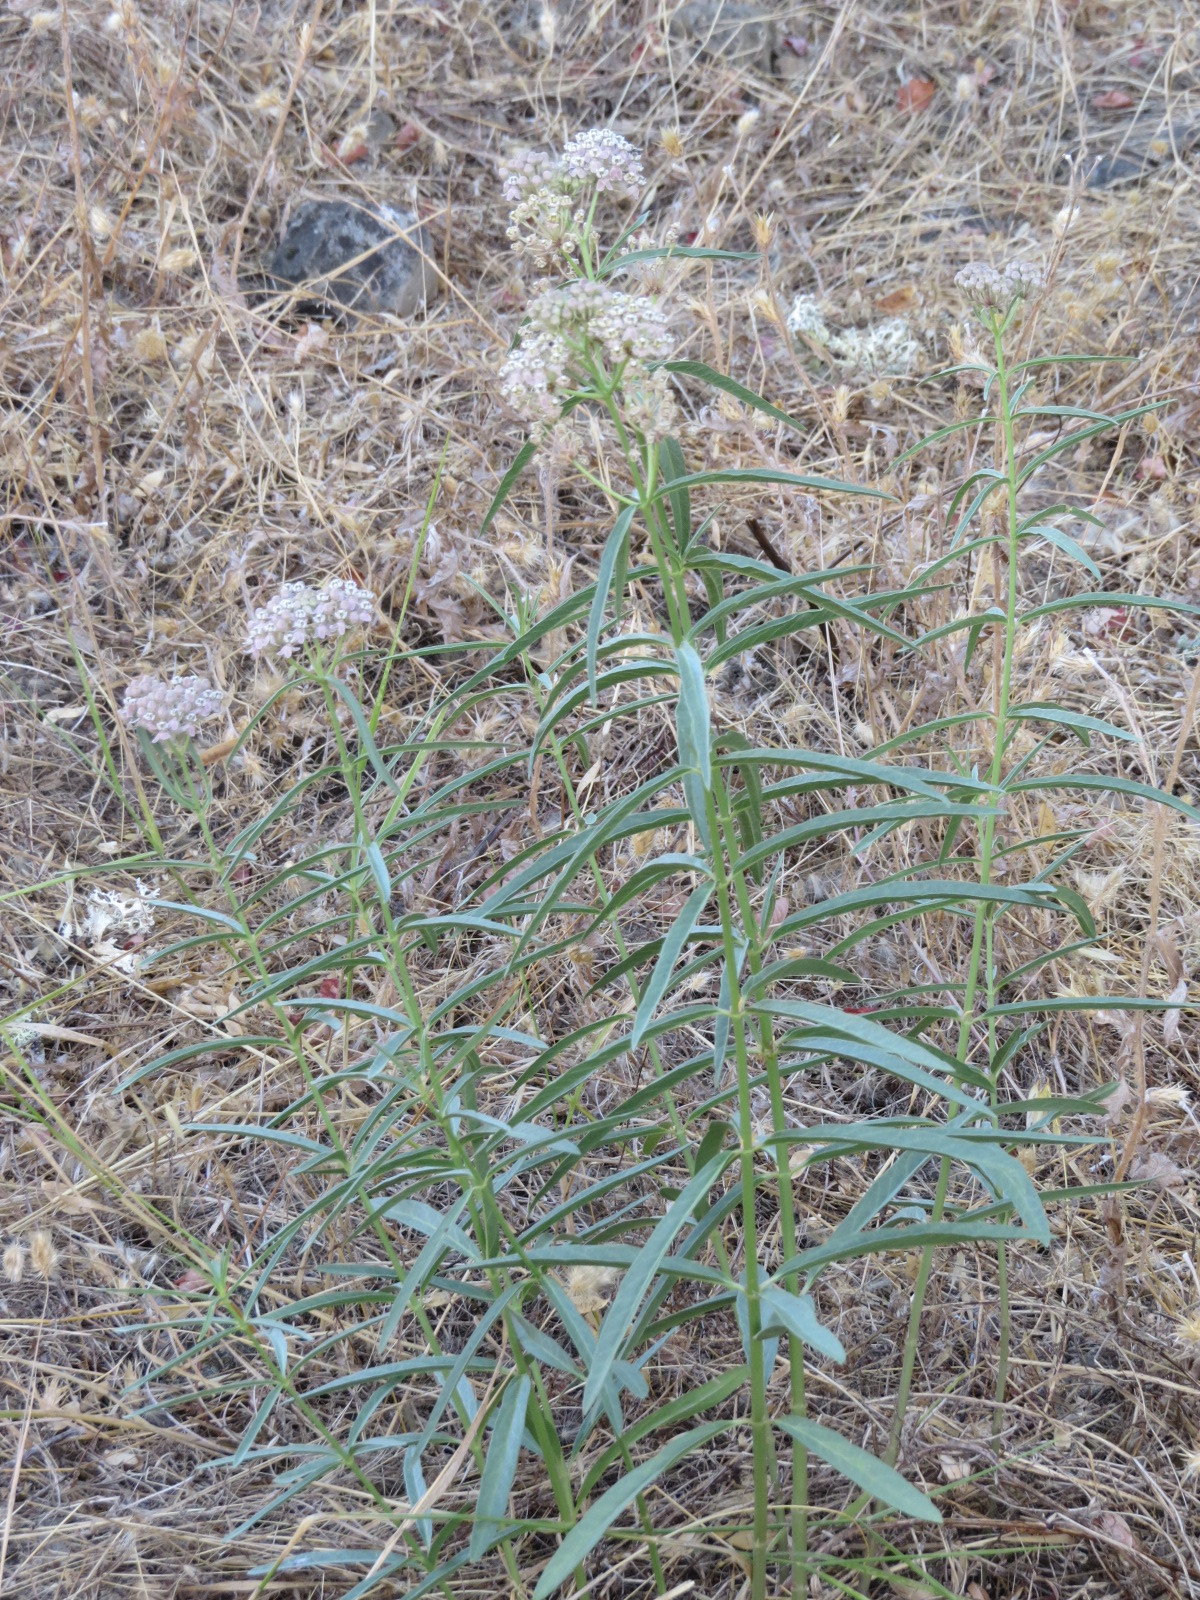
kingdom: Plantae
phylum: Tracheophyta
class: Magnoliopsida
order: Gentianales
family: Apocynaceae
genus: Asclepias
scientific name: Asclepias fascicularis
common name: Mexican milkweed
